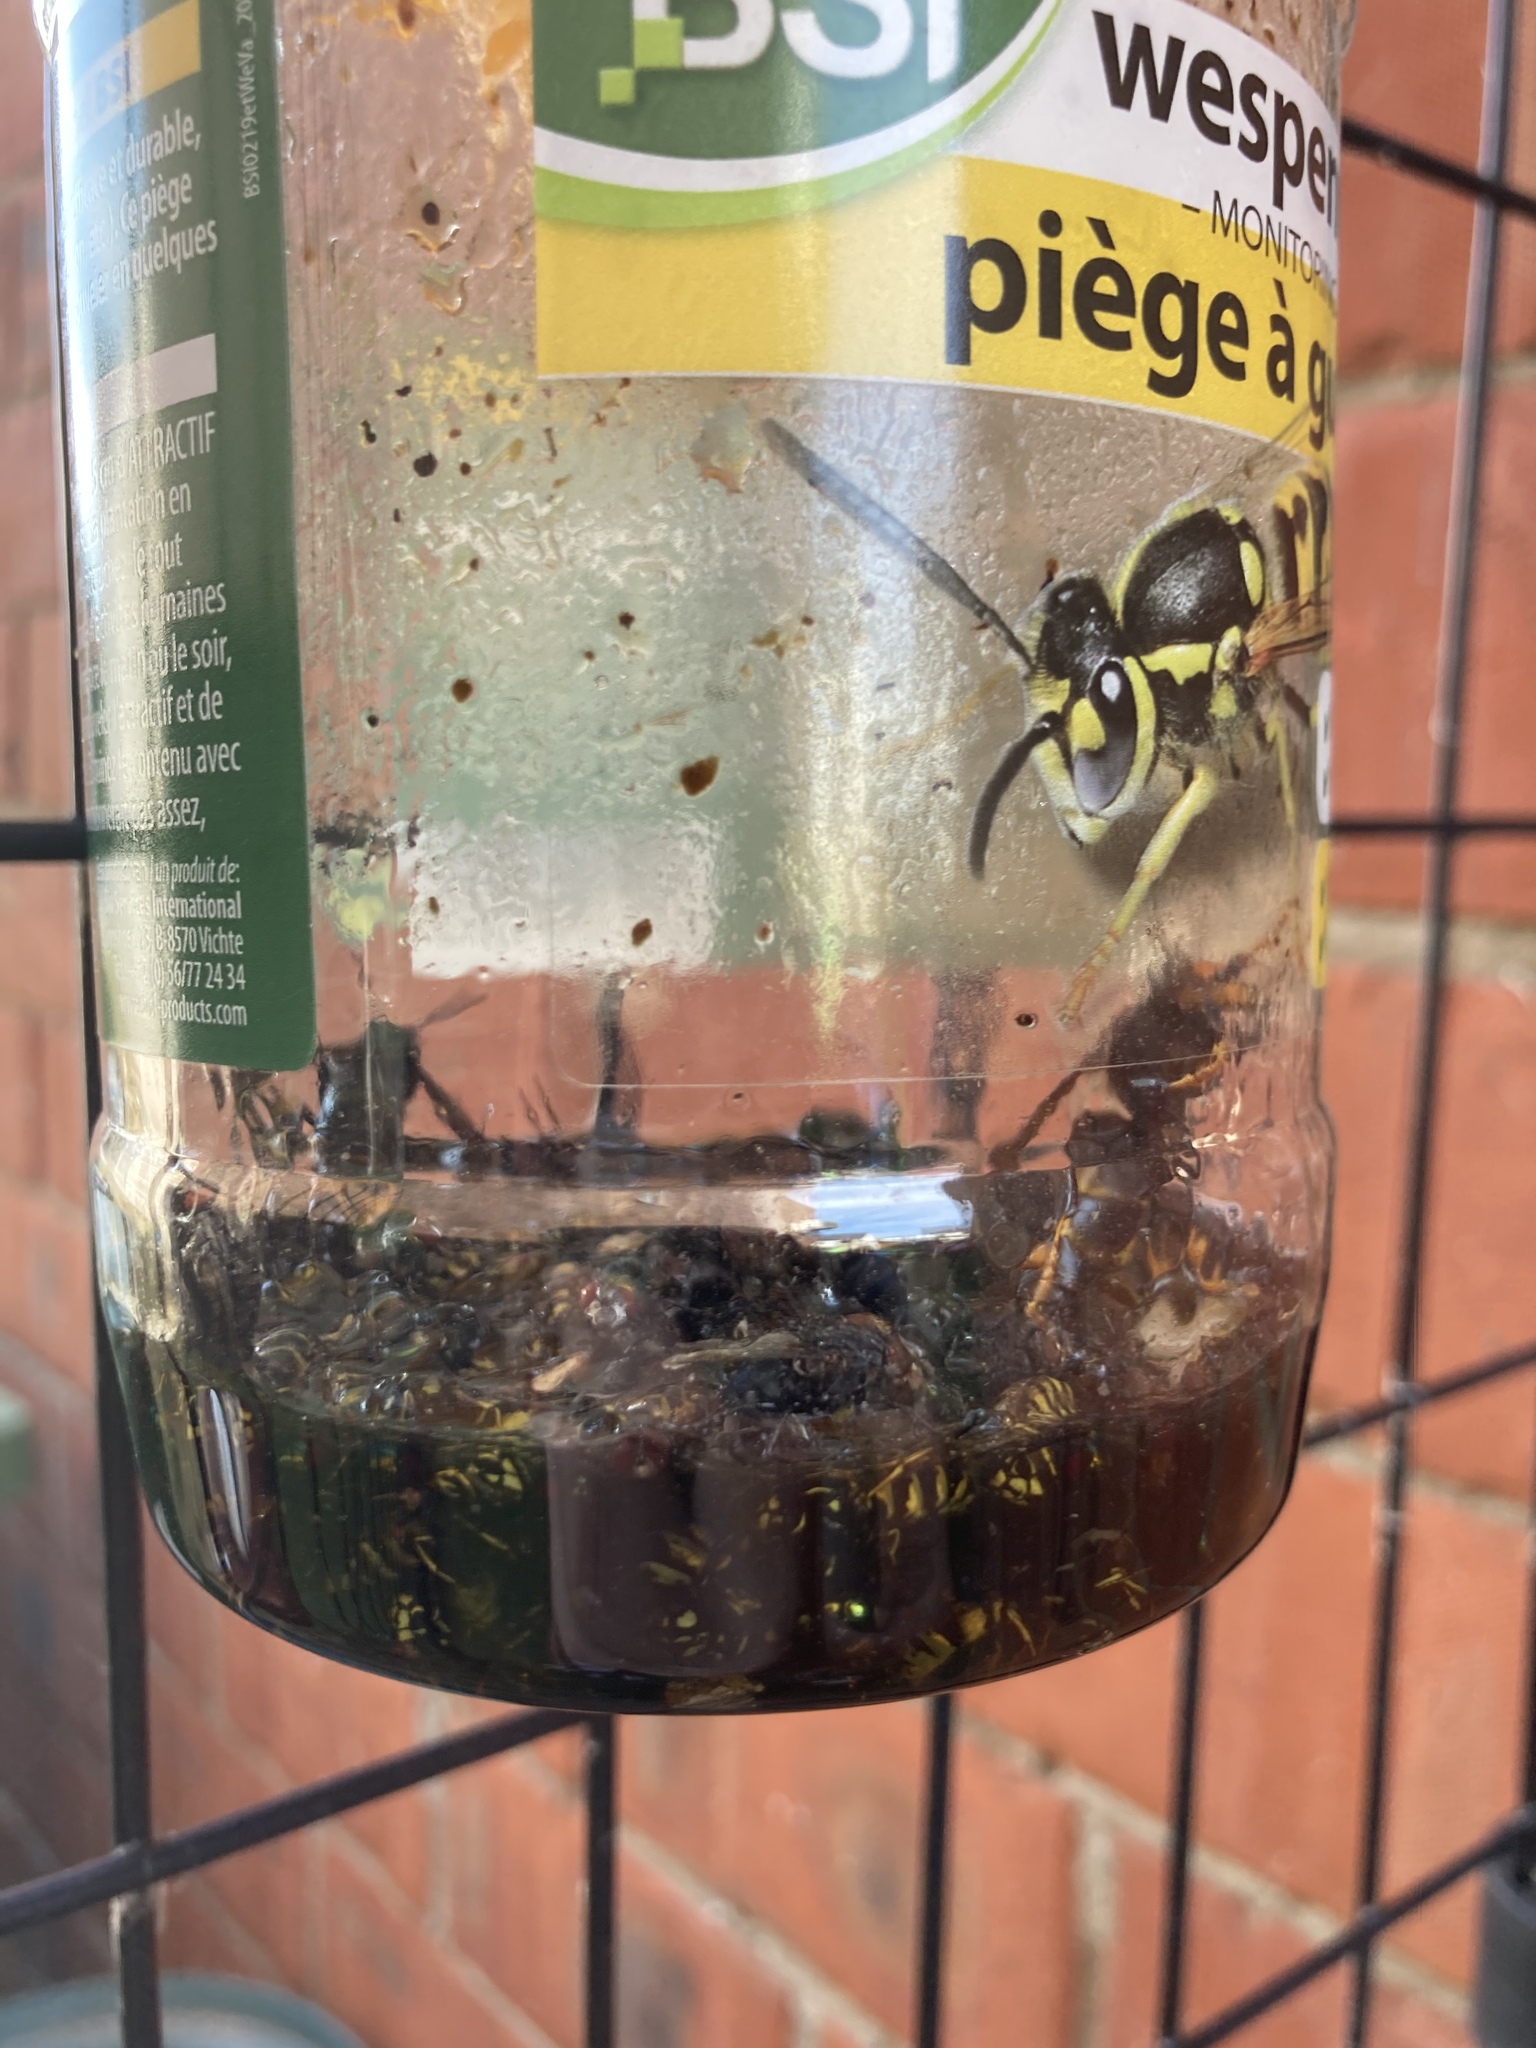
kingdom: Animalia
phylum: Arthropoda
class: Insecta
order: Hymenoptera
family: Vespidae
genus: Vespa
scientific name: Vespa velutina
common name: Asian hornet
